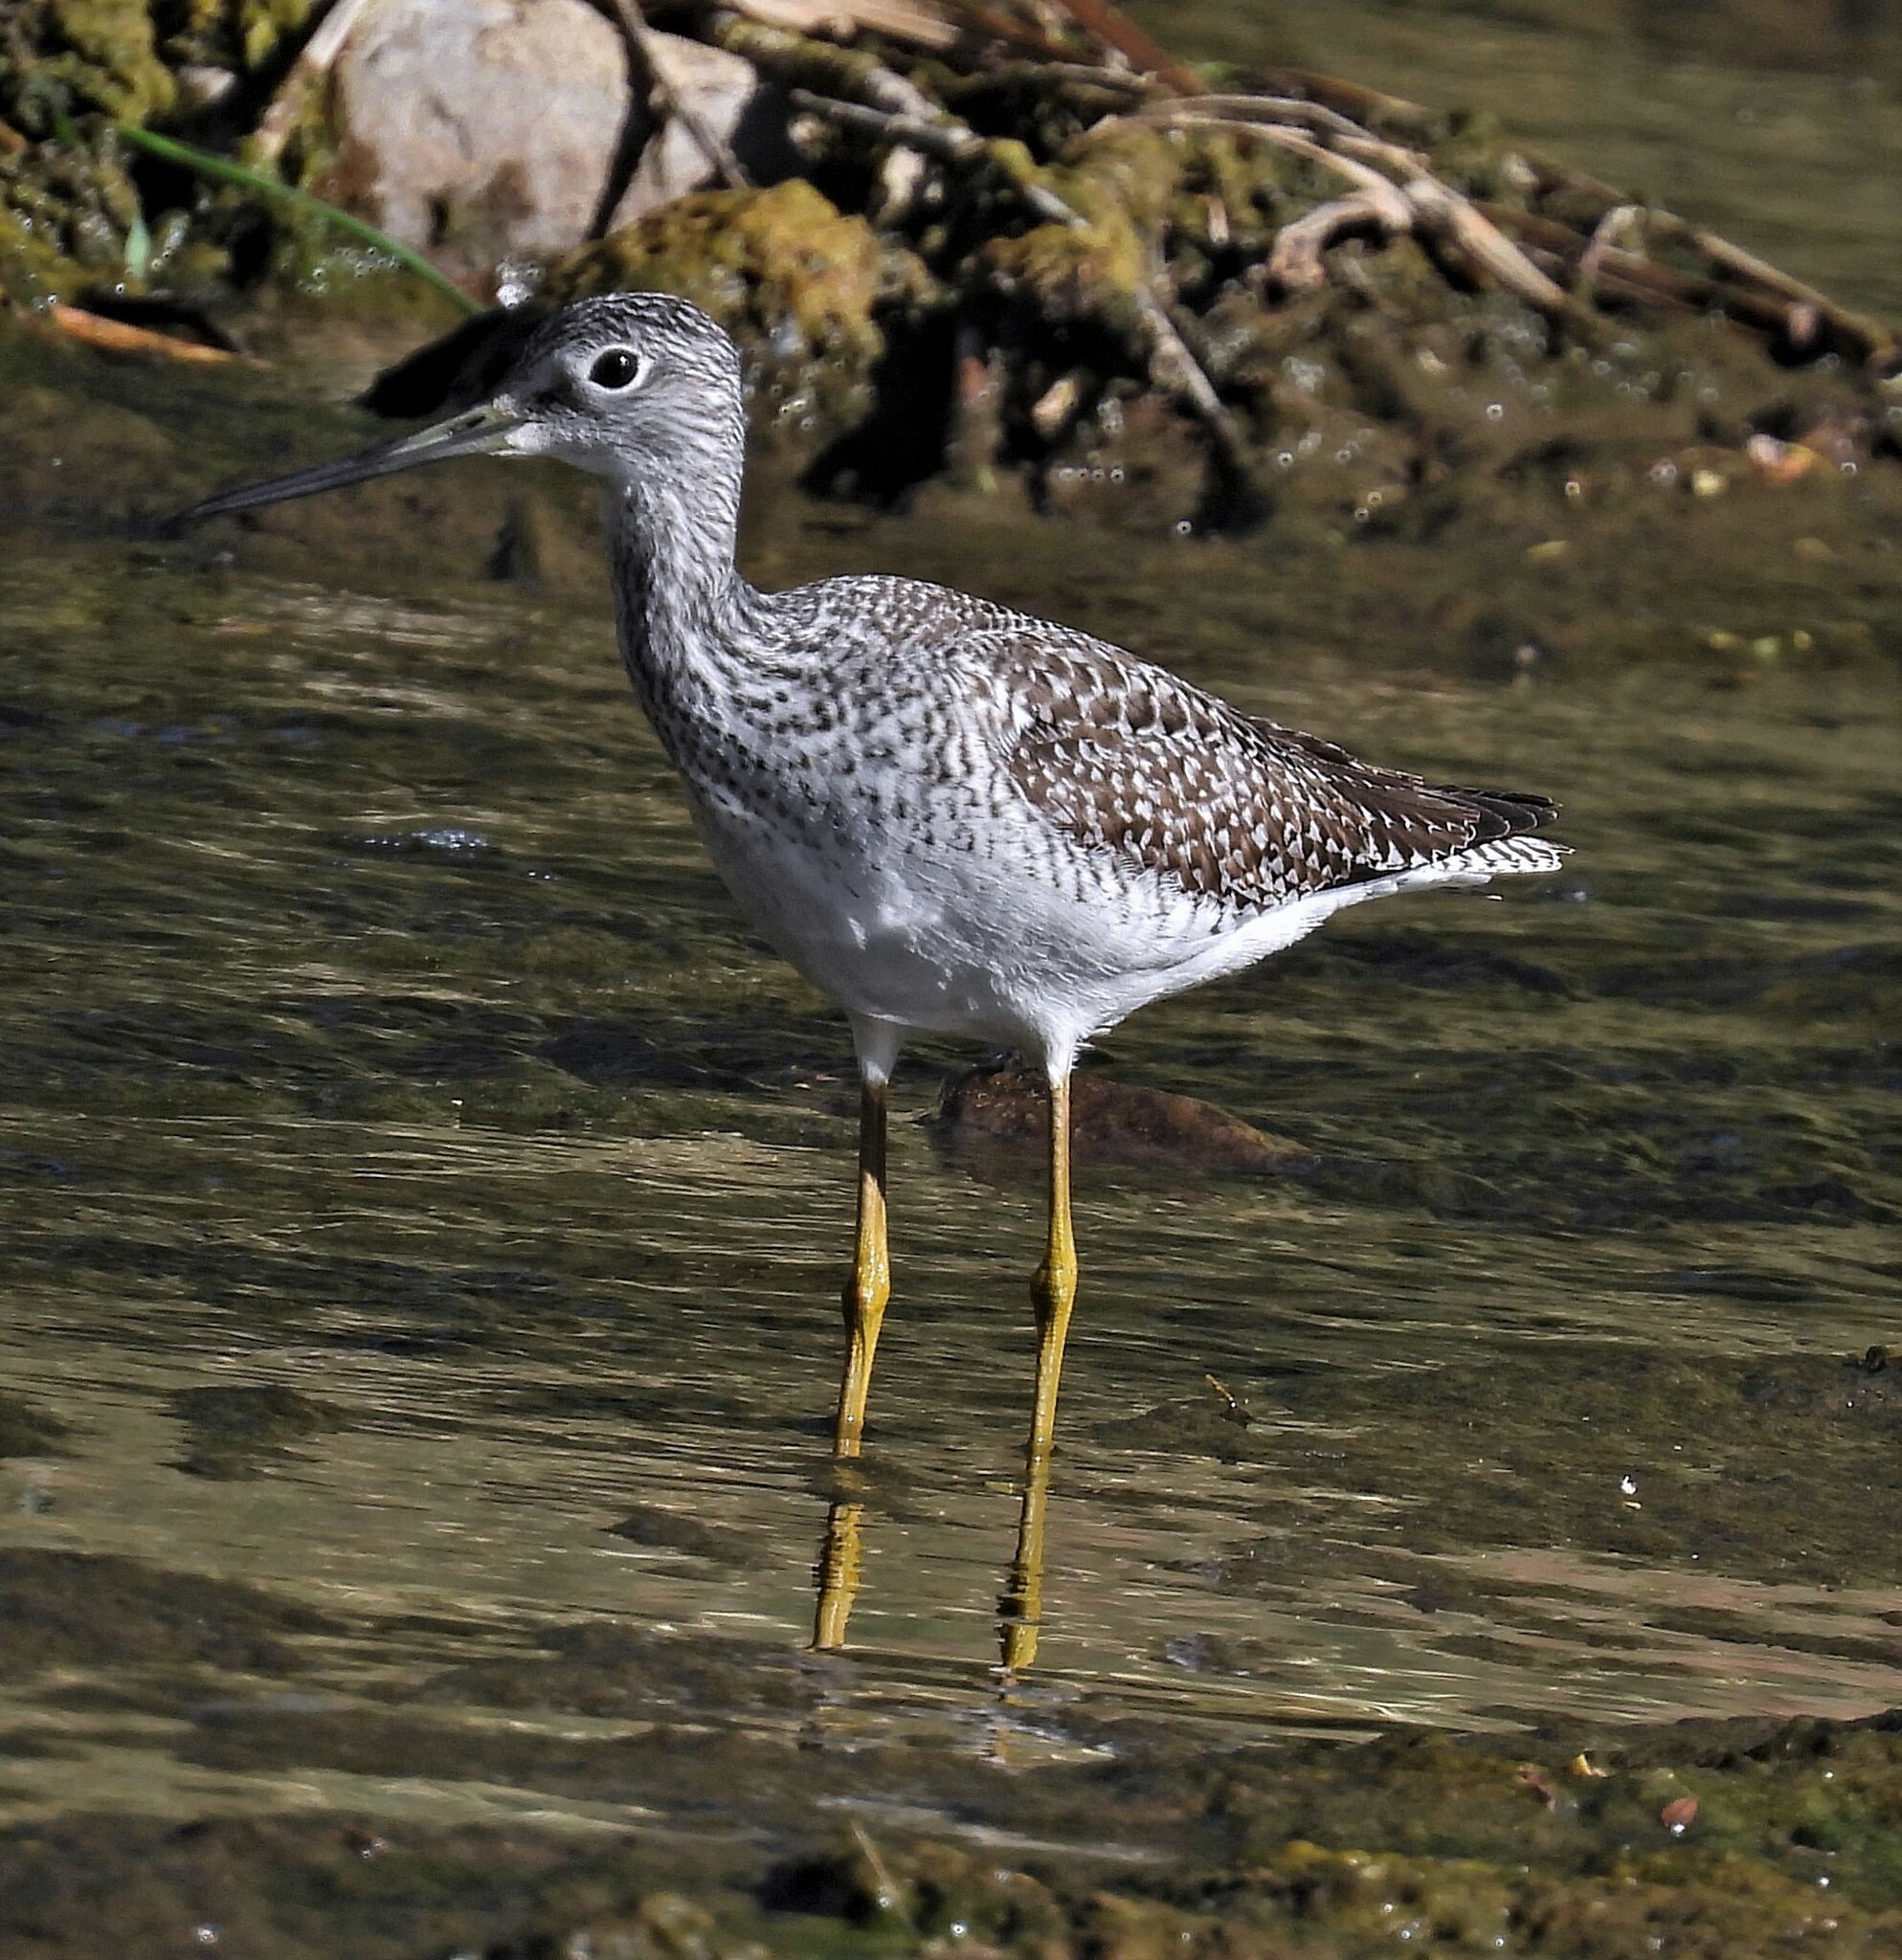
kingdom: Animalia
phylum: Chordata
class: Aves
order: Charadriiformes
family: Scolopacidae
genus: Tringa
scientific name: Tringa melanoleuca
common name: Greater yellowlegs
